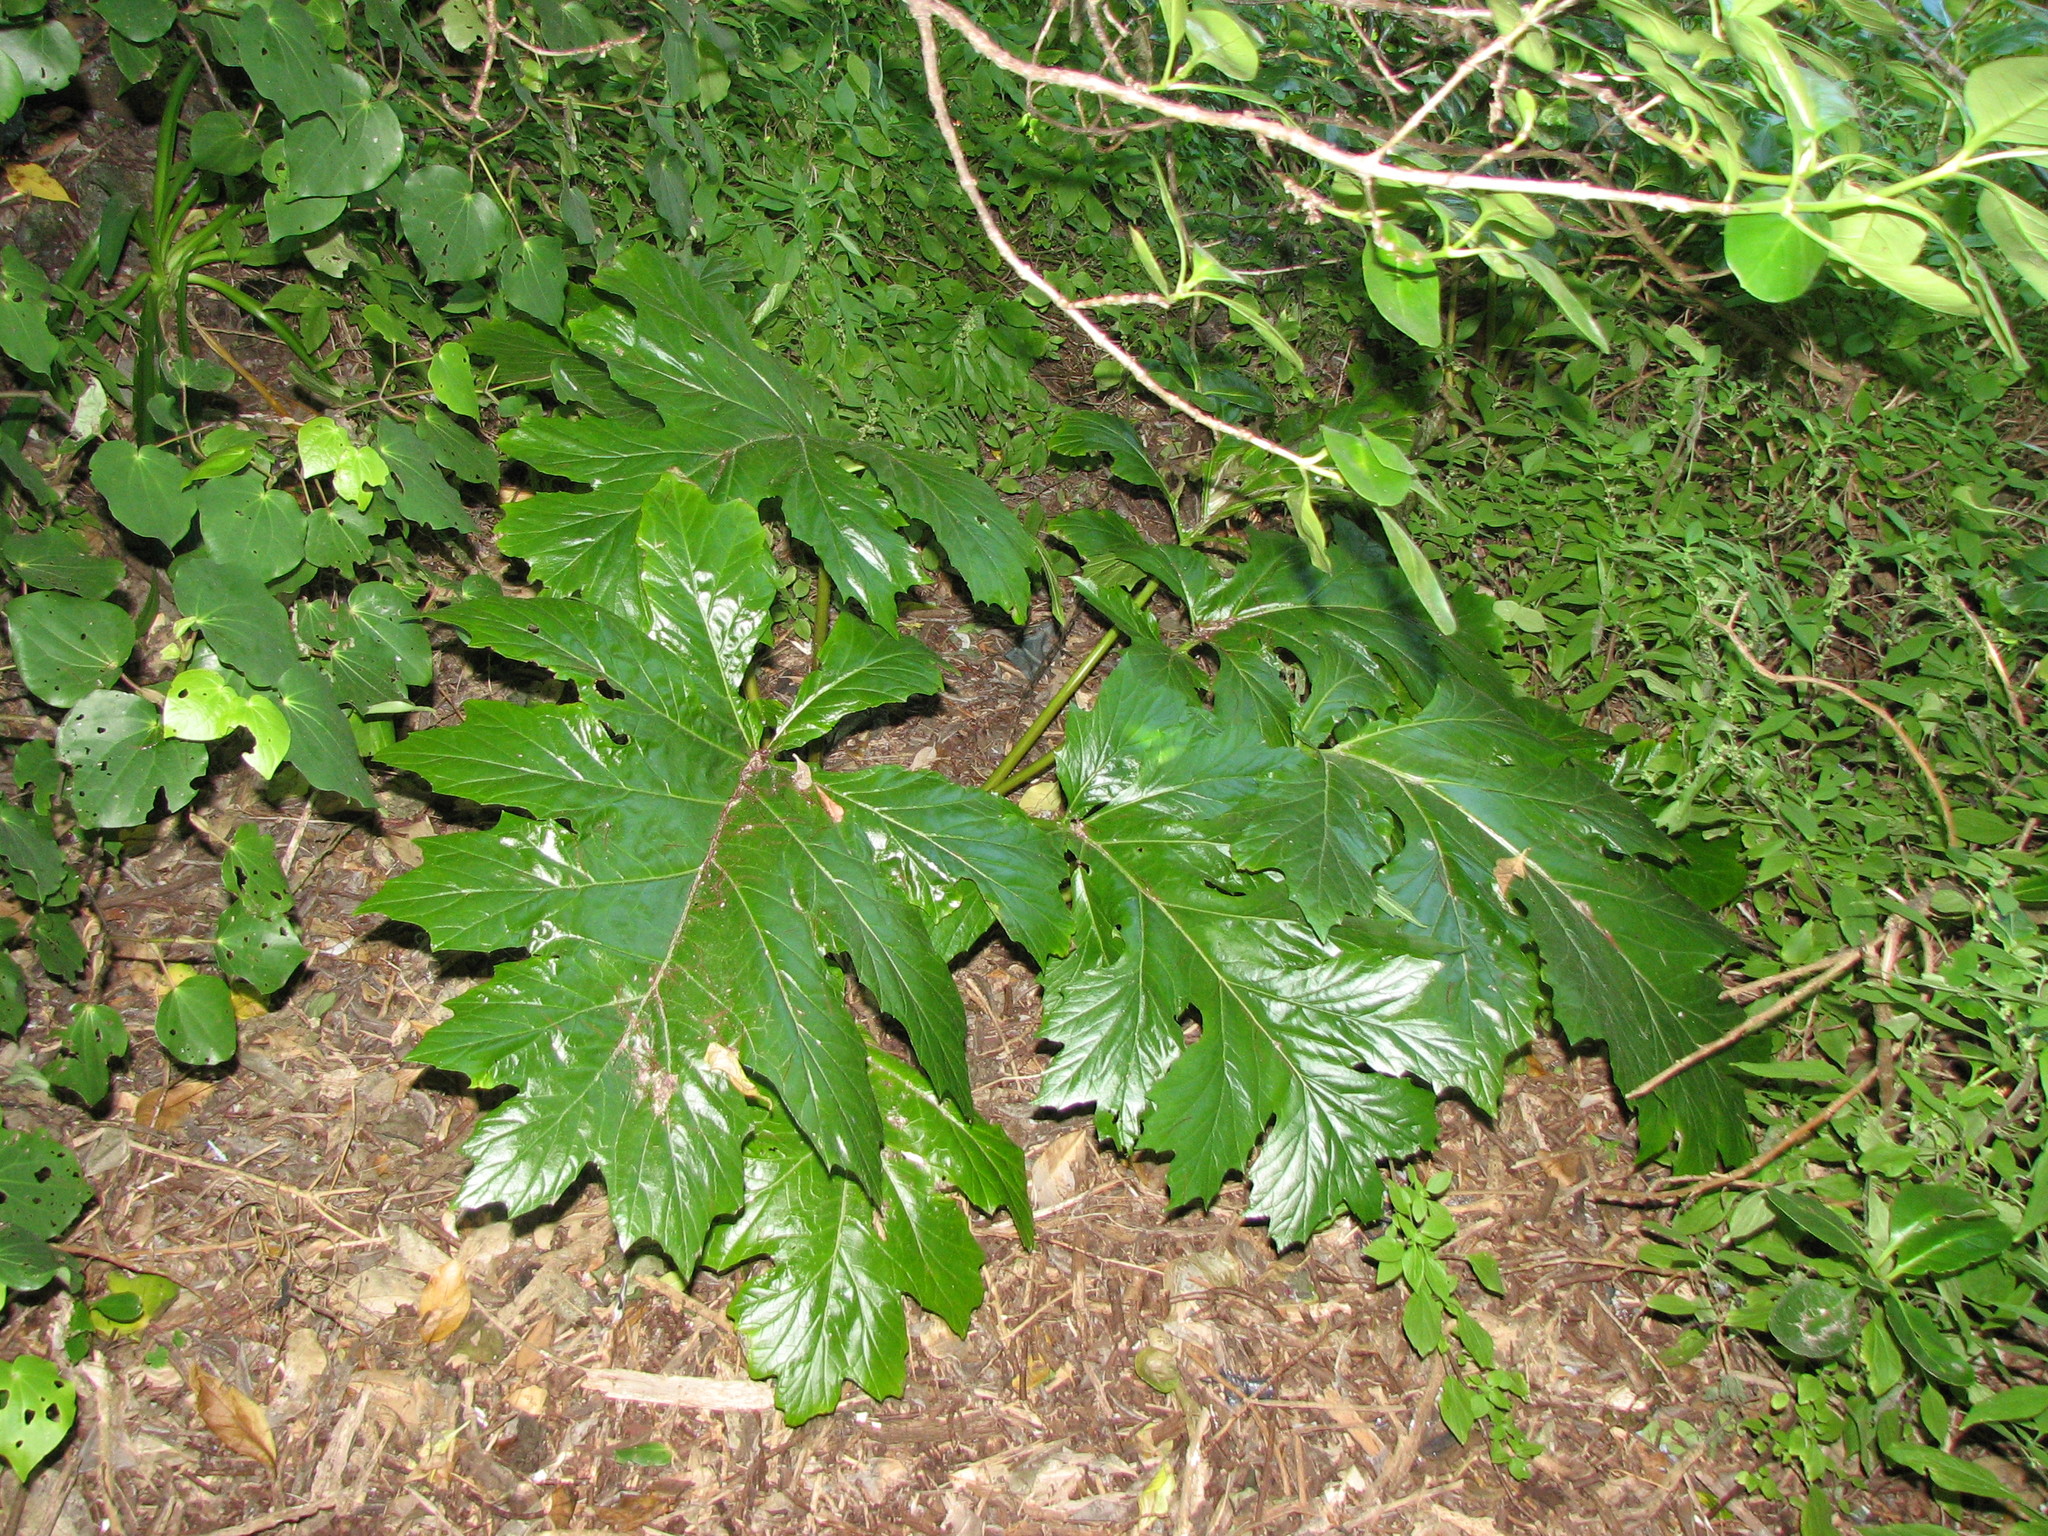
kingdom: Plantae
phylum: Tracheophyta
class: Magnoliopsida
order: Lamiales
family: Acanthaceae
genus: Acanthus
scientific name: Acanthus mollis
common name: Bear's-breech
